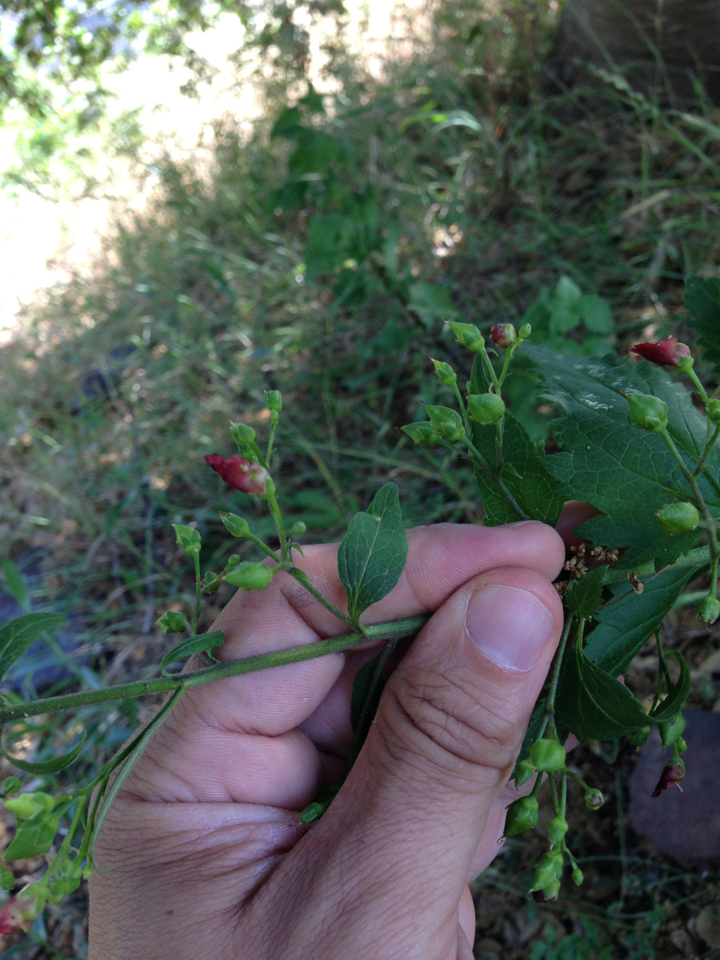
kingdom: Plantae
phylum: Tracheophyta
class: Magnoliopsida
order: Lamiales
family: Scrophulariaceae
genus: Scrophularia
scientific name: Scrophularia californica
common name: California figwort
